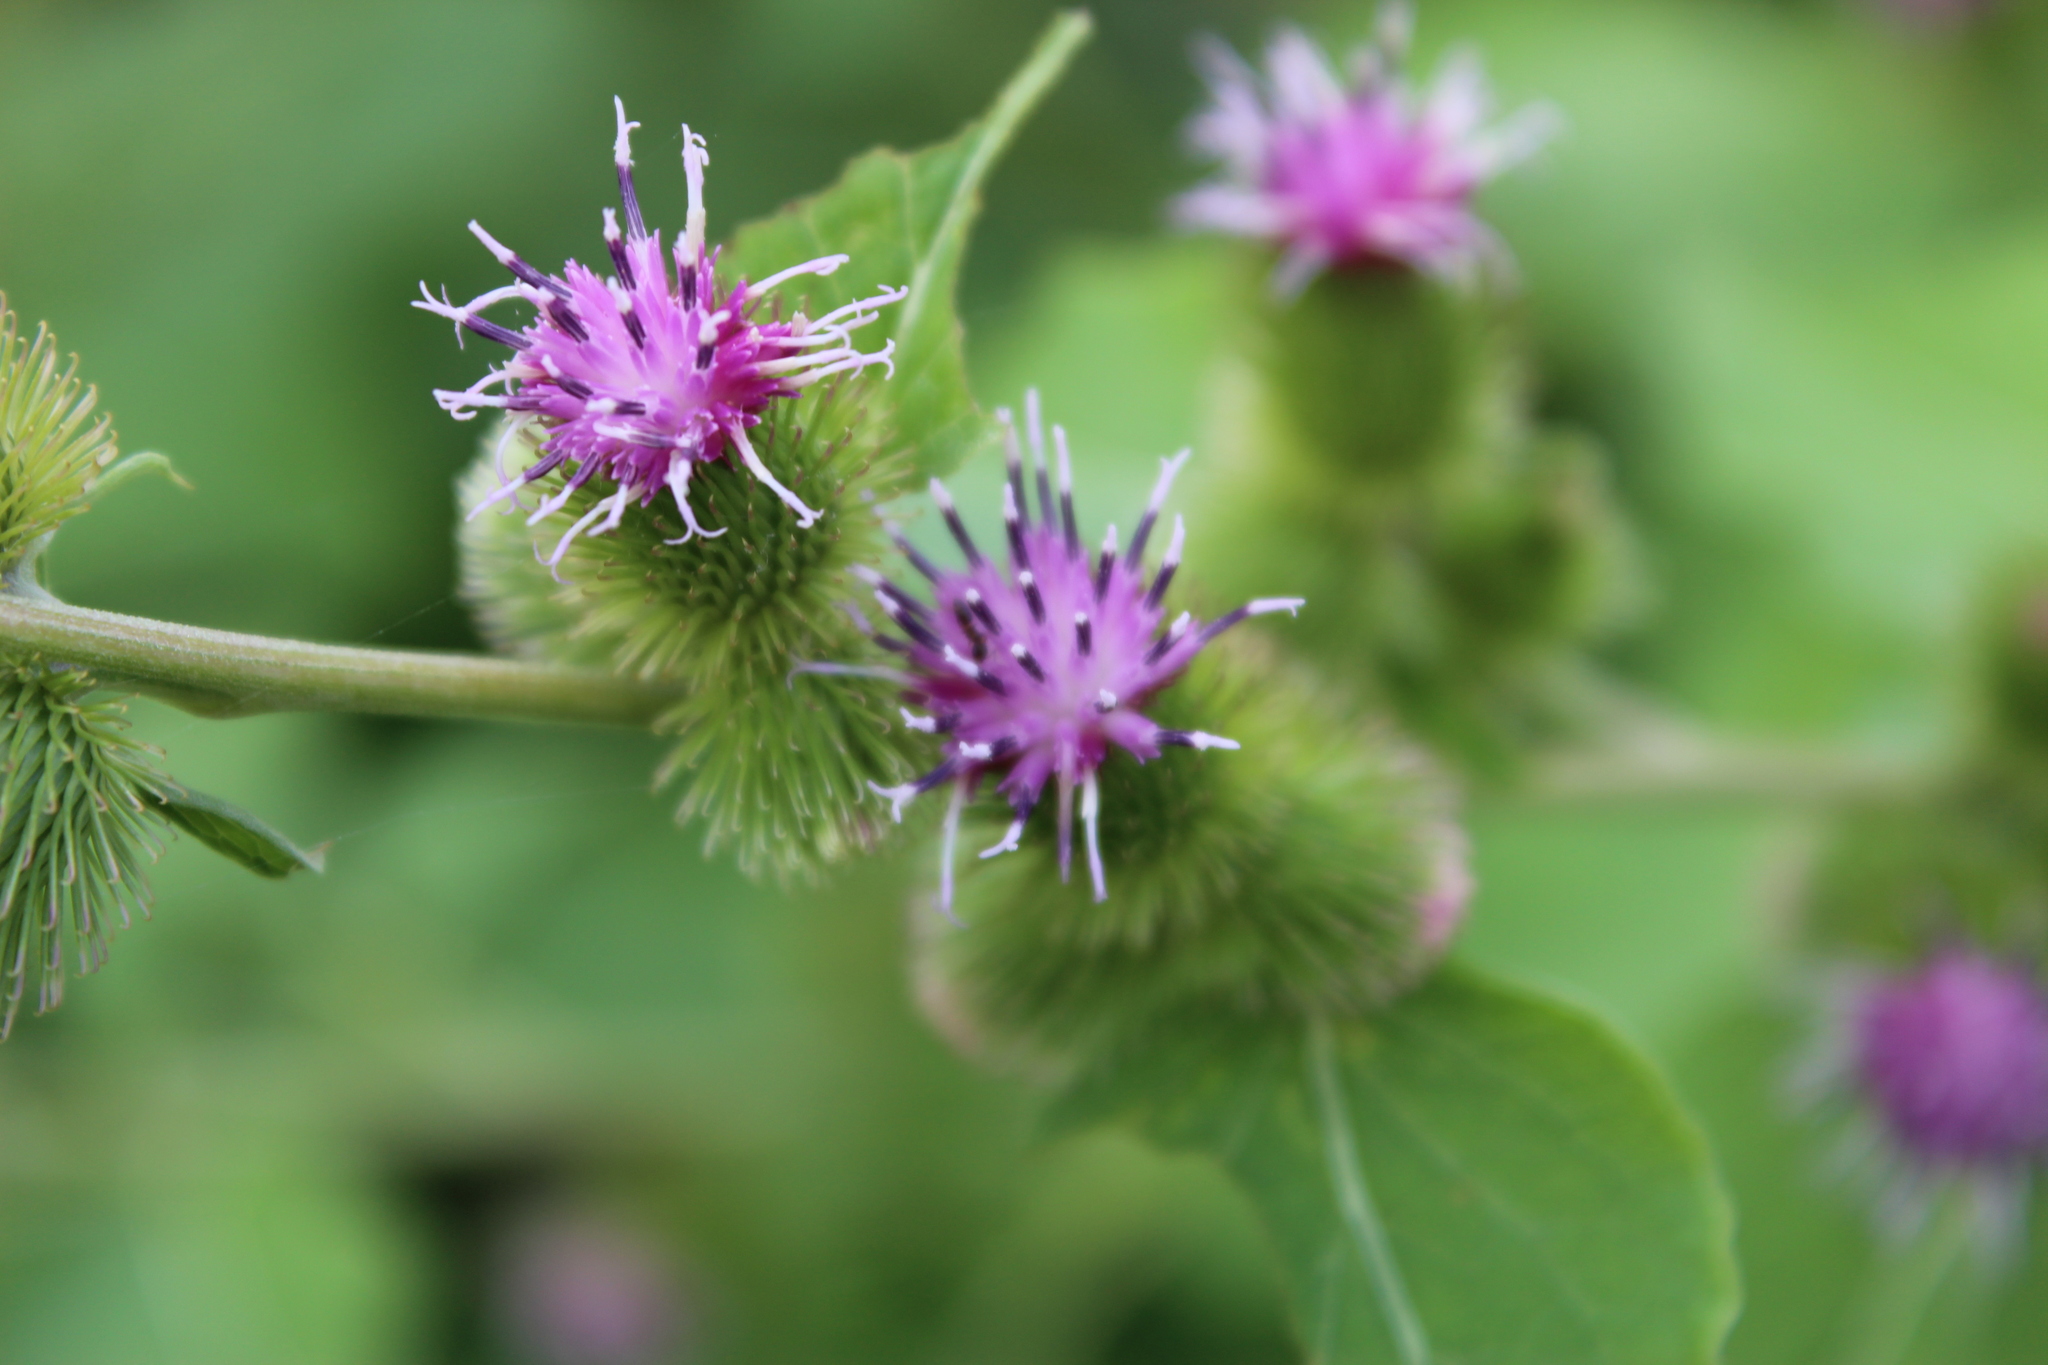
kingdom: Plantae
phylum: Tracheophyta
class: Magnoliopsida
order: Asterales
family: Asteraceae
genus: Arctium
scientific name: Arctium minus
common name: Lesser burdock
